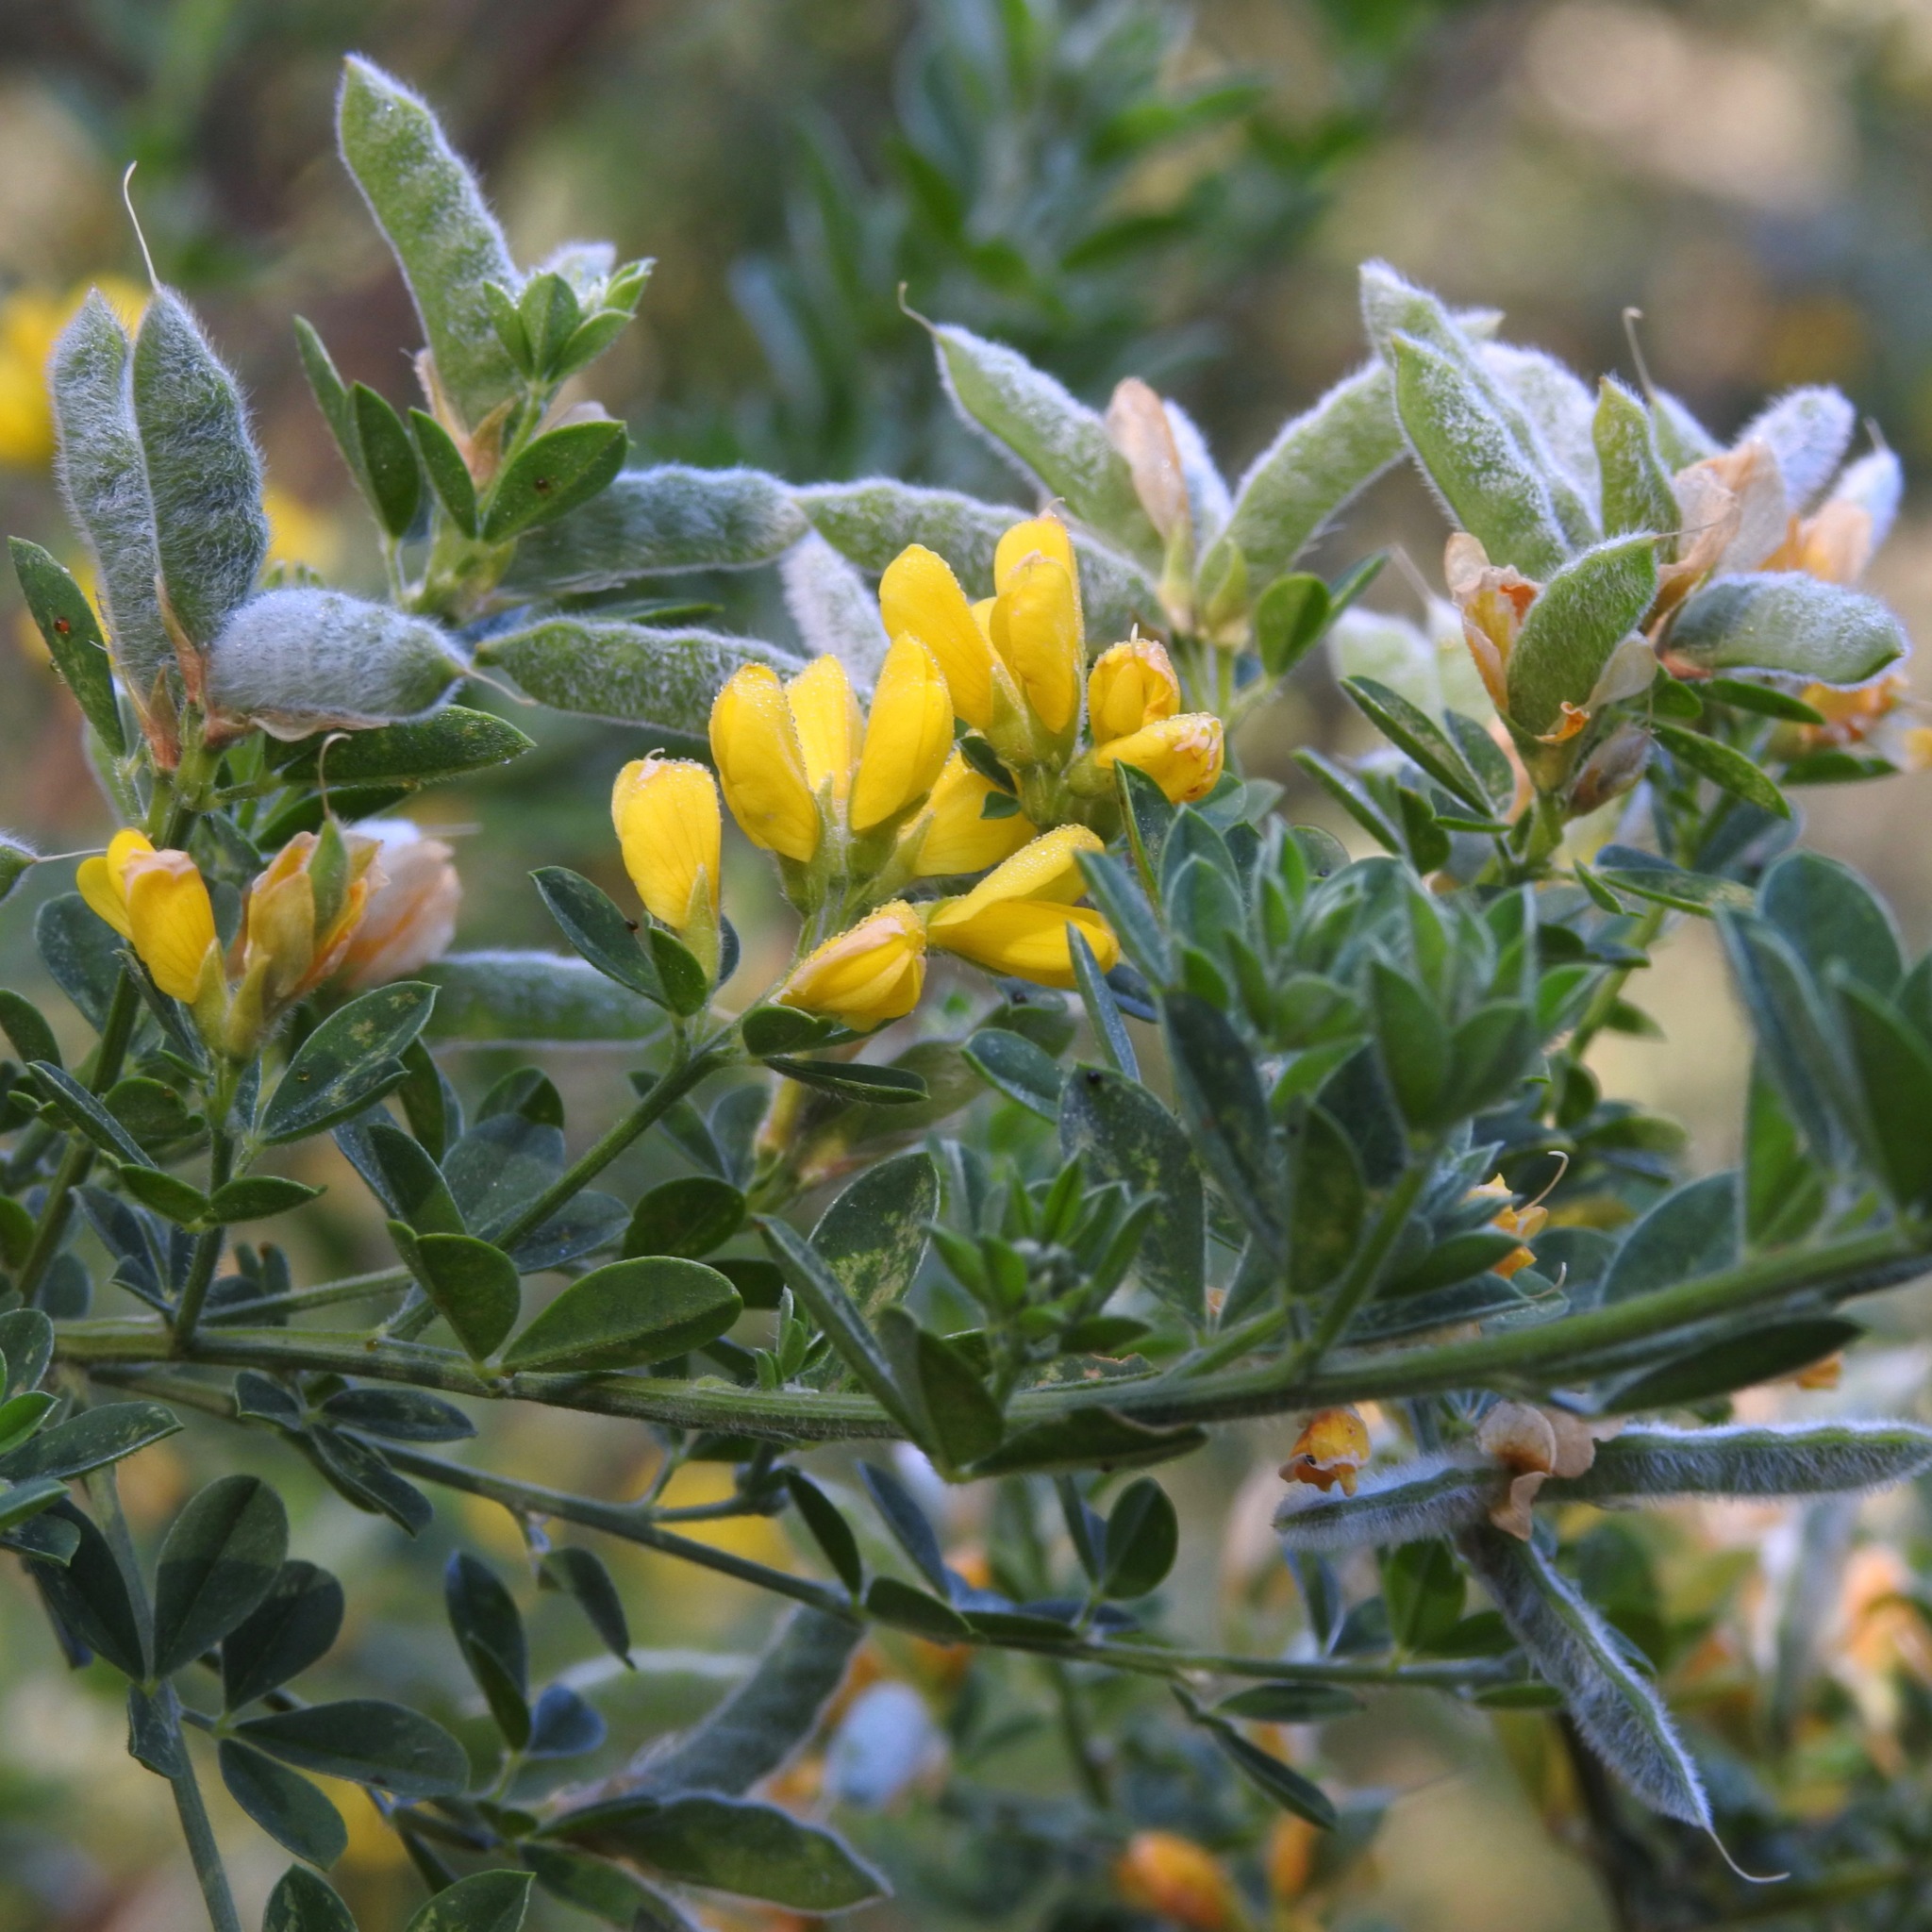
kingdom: Plantae
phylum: Tracheophyta
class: Magnoliopsida
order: Fabales
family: Fabaceae
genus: Genista
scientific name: Genista monspessulana
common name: Montpellier broom
